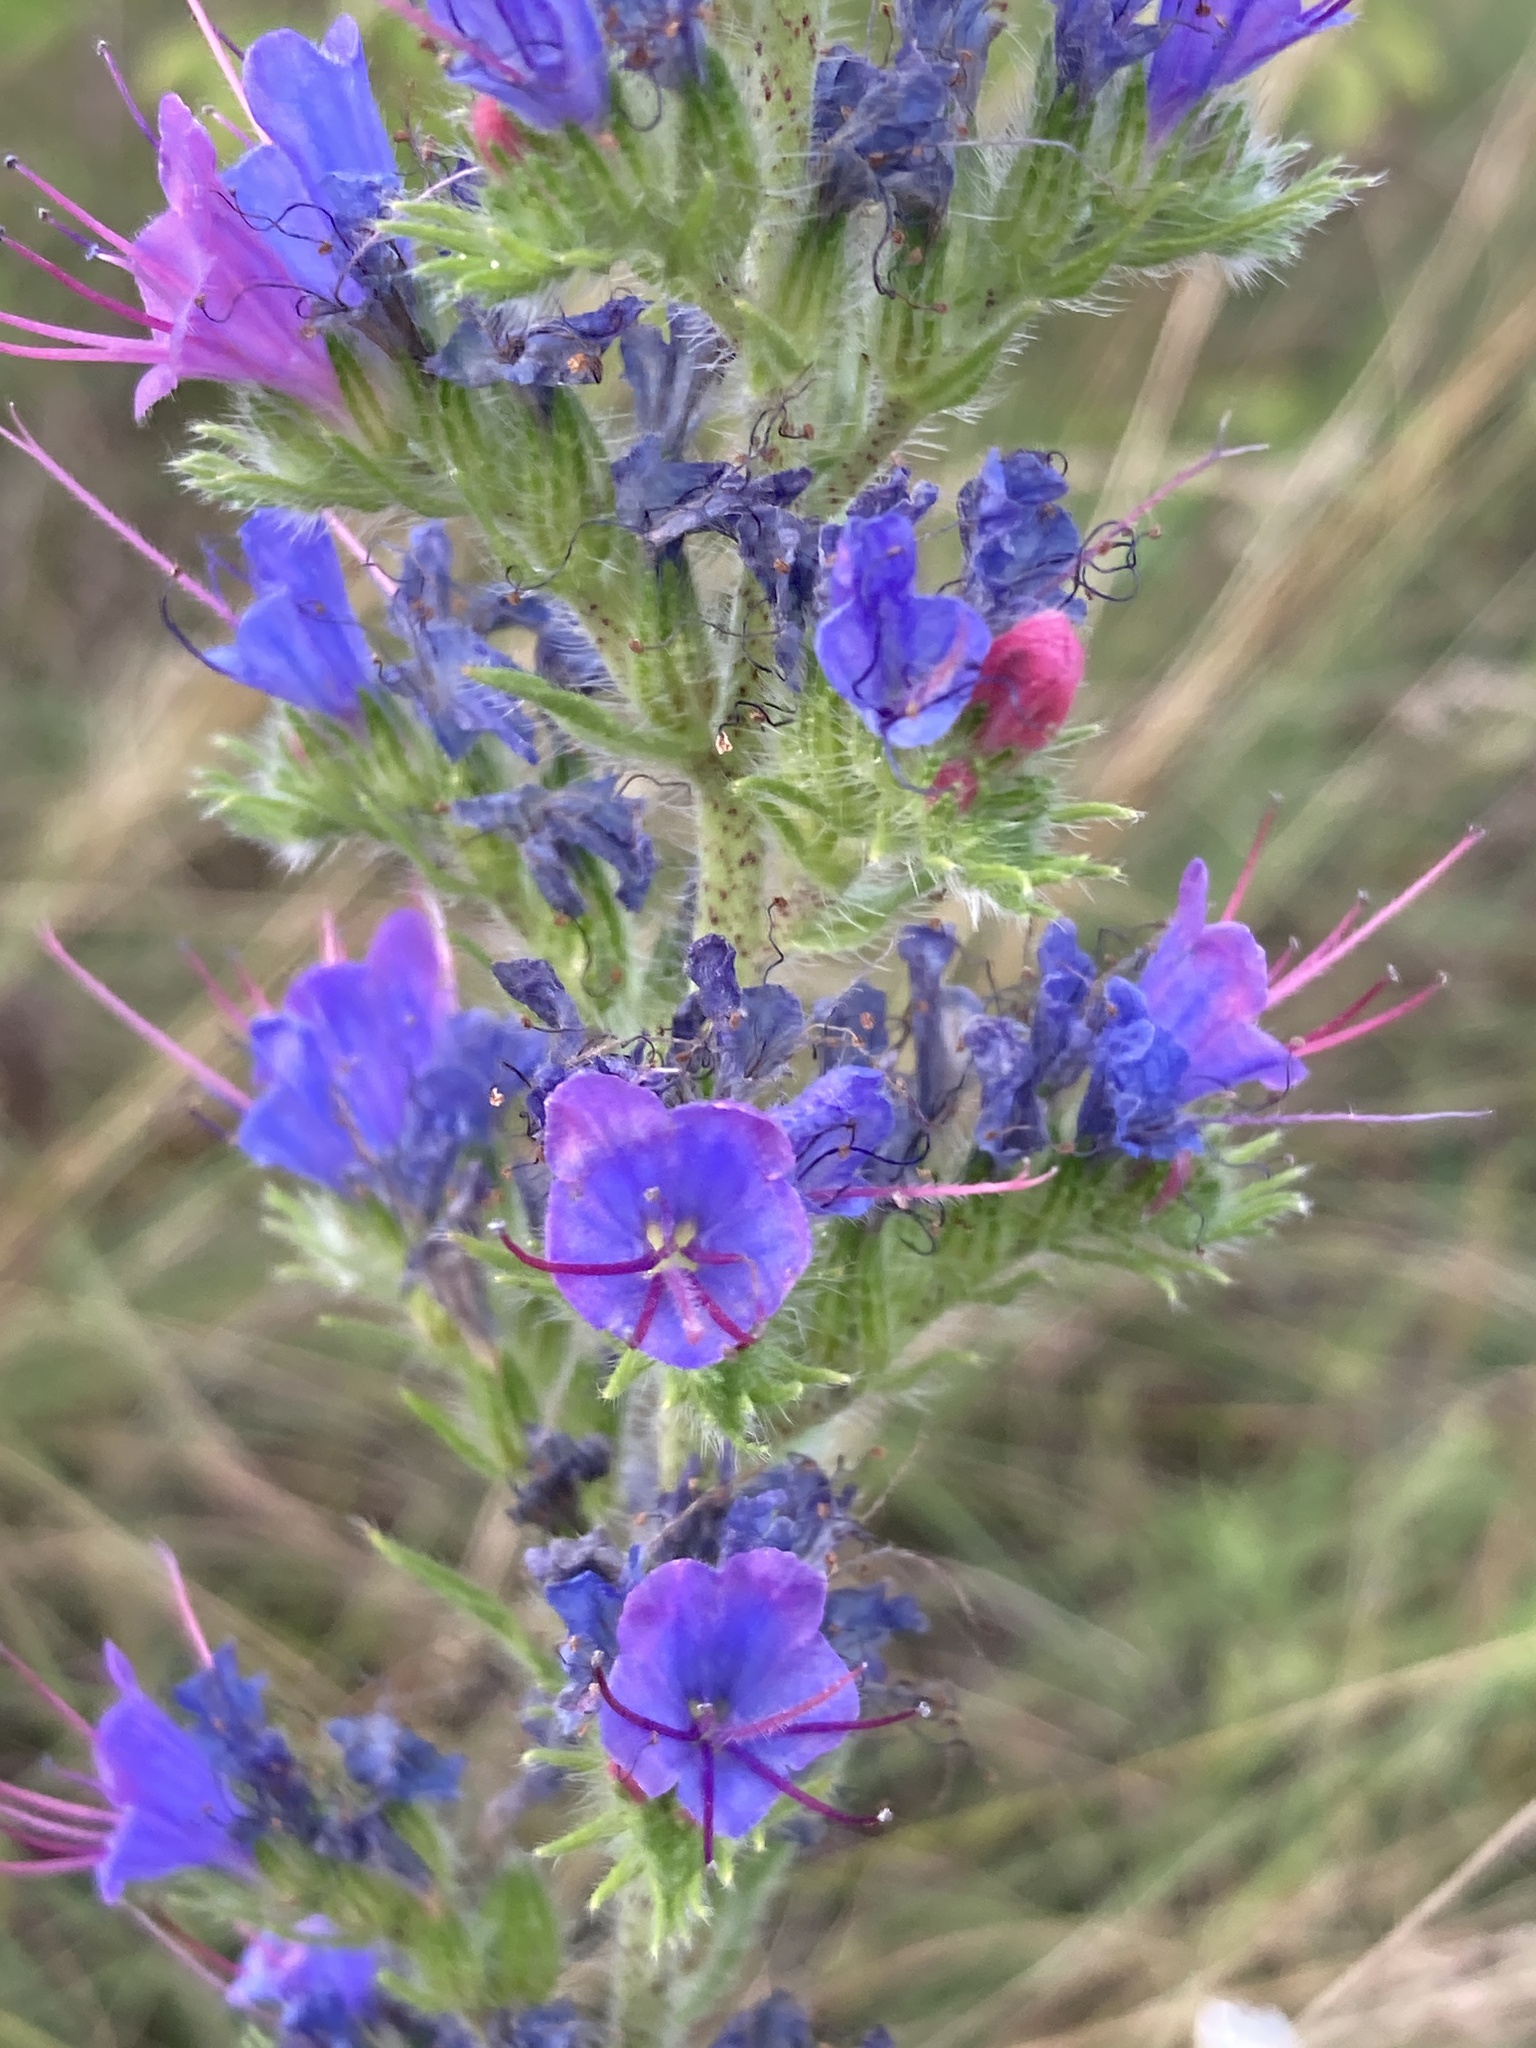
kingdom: Plantae
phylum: Tracheophyta
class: Magnoliopsida
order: Boraginales
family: Boraginaceae
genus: Echium
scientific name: Echium vulgare
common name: Common viper's bugloss
